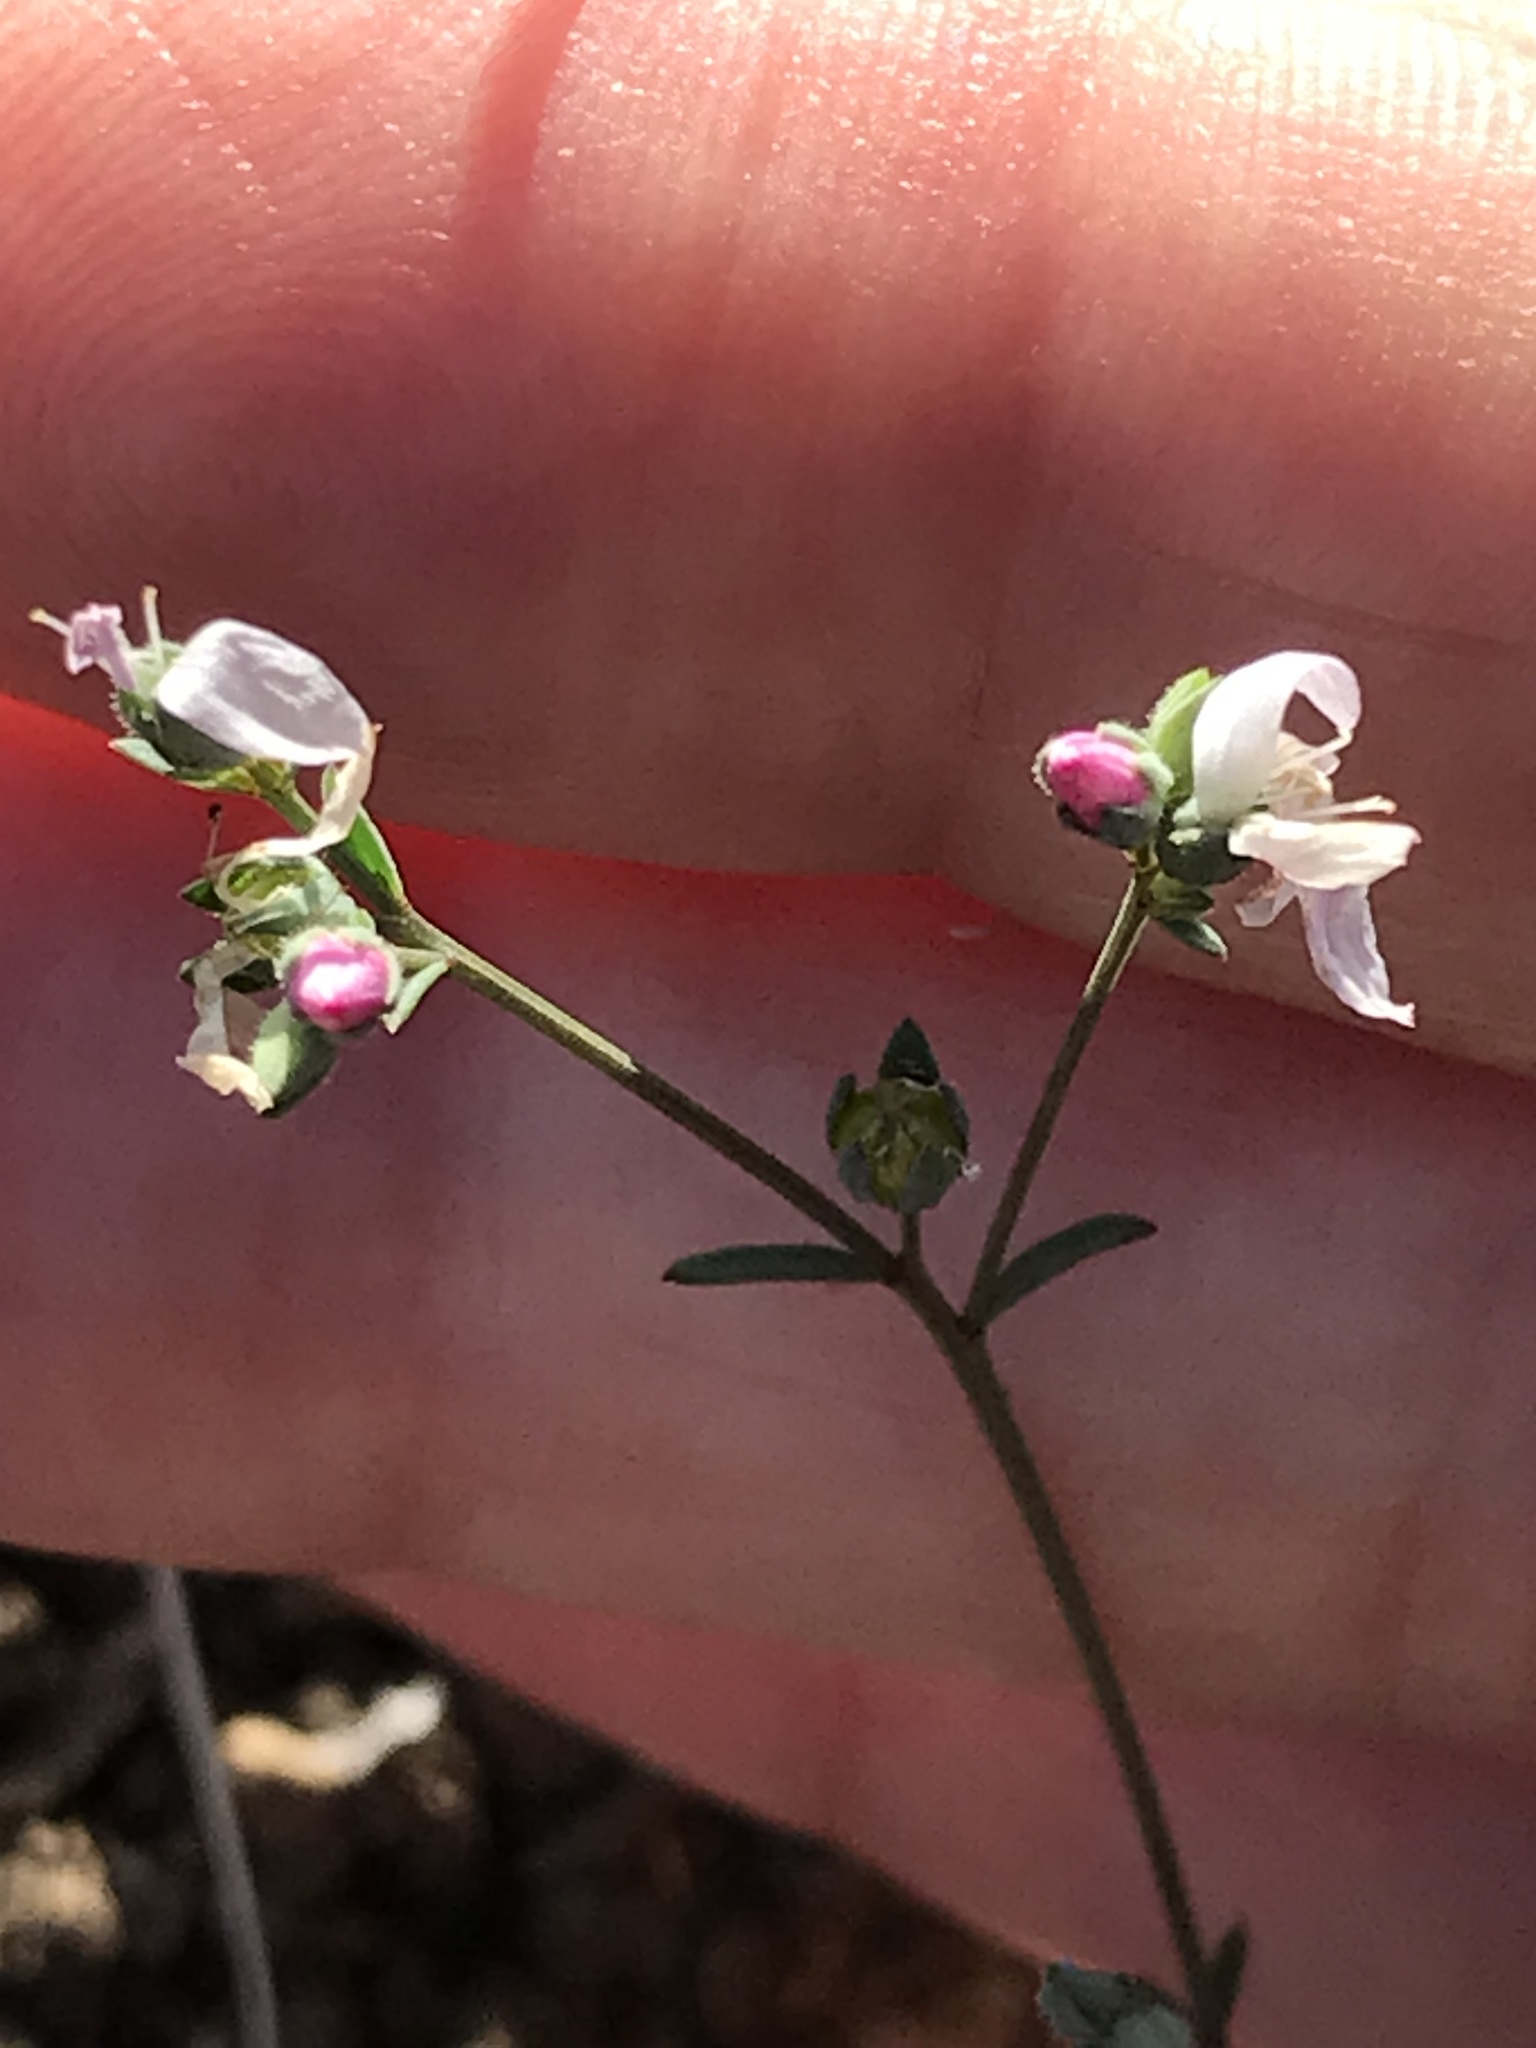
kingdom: Plantae
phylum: Tracheophyta
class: Magnoliopsida
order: Malpighiales
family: Linaceae
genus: Hesperolinon
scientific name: Hesperolinon congestum
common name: Marin dwarf-flax
